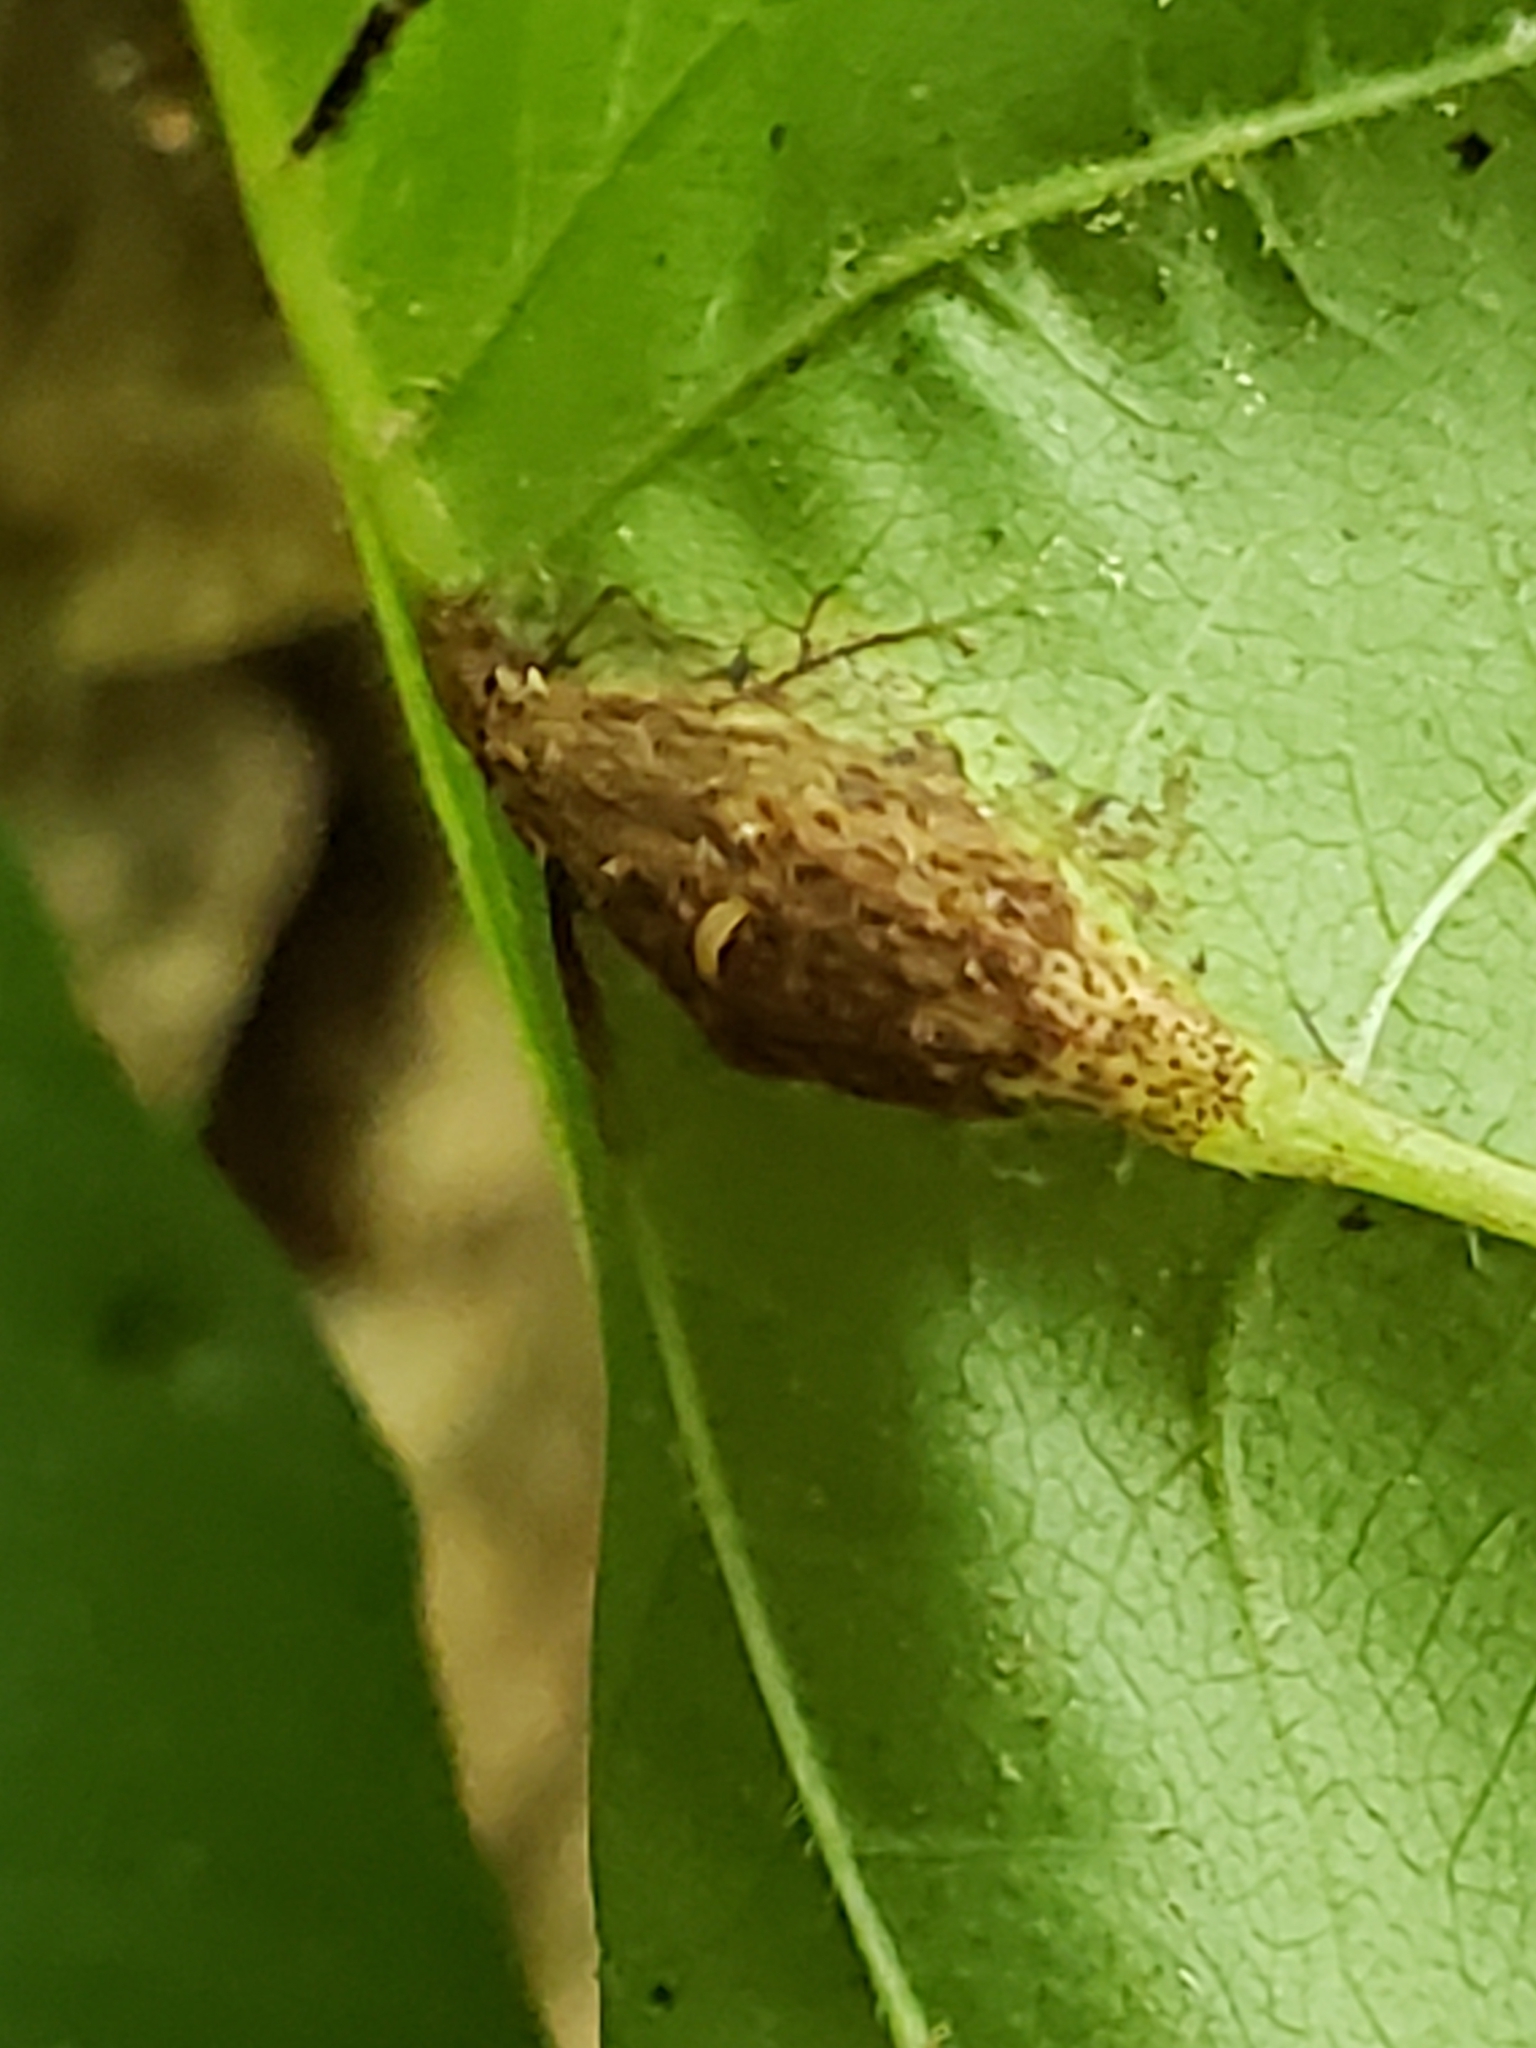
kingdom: Fungi
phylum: Basidiomycota
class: Pucciniomycetes
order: Pucciniales
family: Pileolariaceae
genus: Pileolaria
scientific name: Pileolaria brevipes
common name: Poison ivy rust
